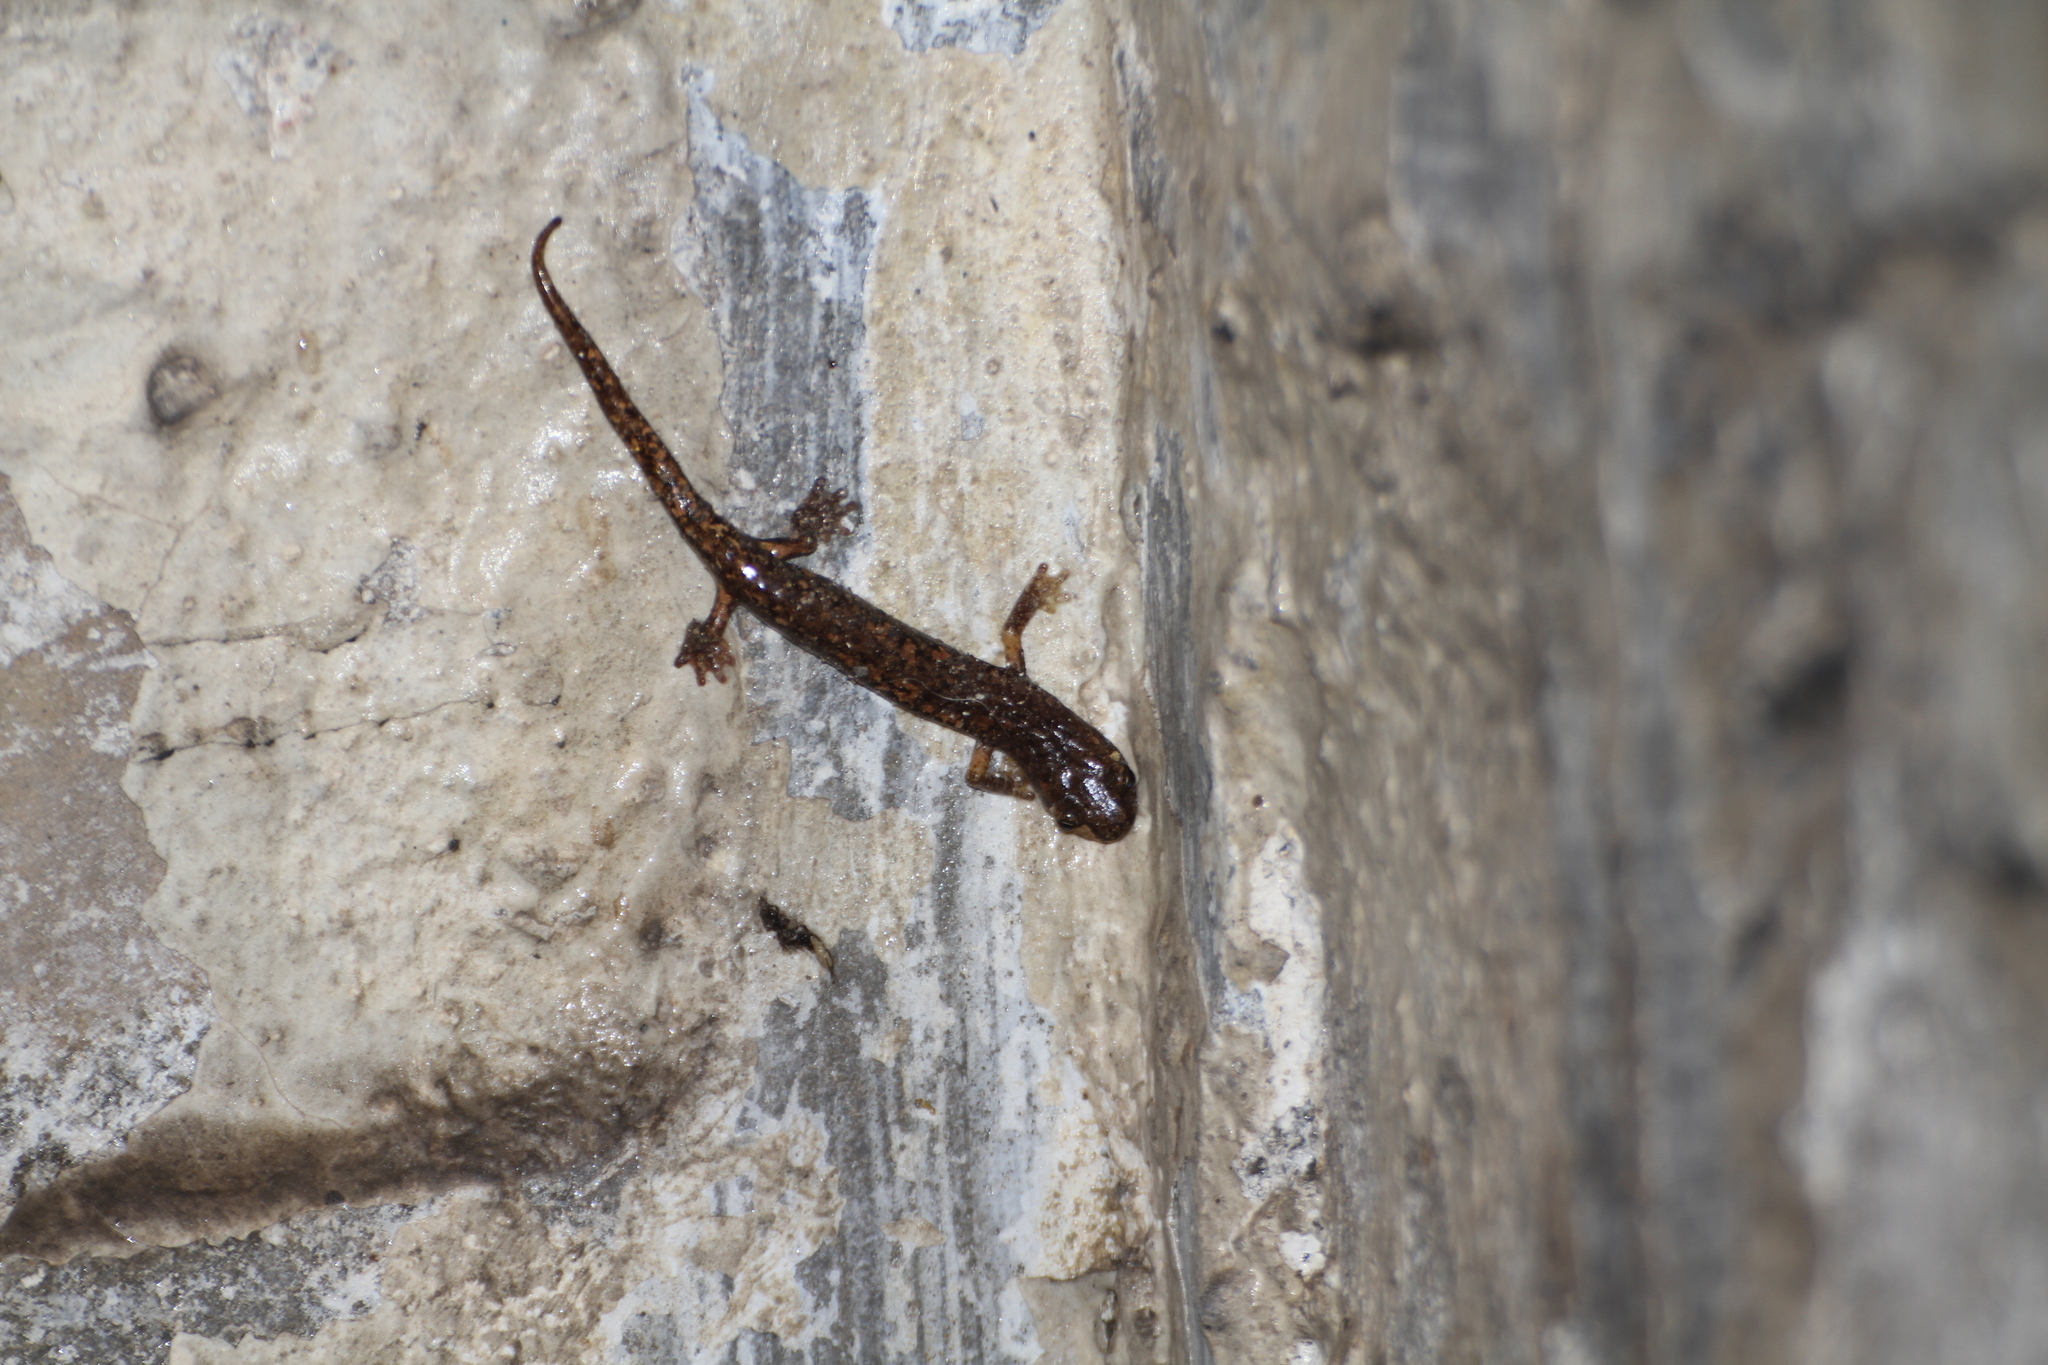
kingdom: Animalia
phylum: Chordata
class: Amphibia
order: Caudata
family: Plethodontidae
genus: Speleomantes
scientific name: Speleomantes strinatii
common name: French cave salamander
